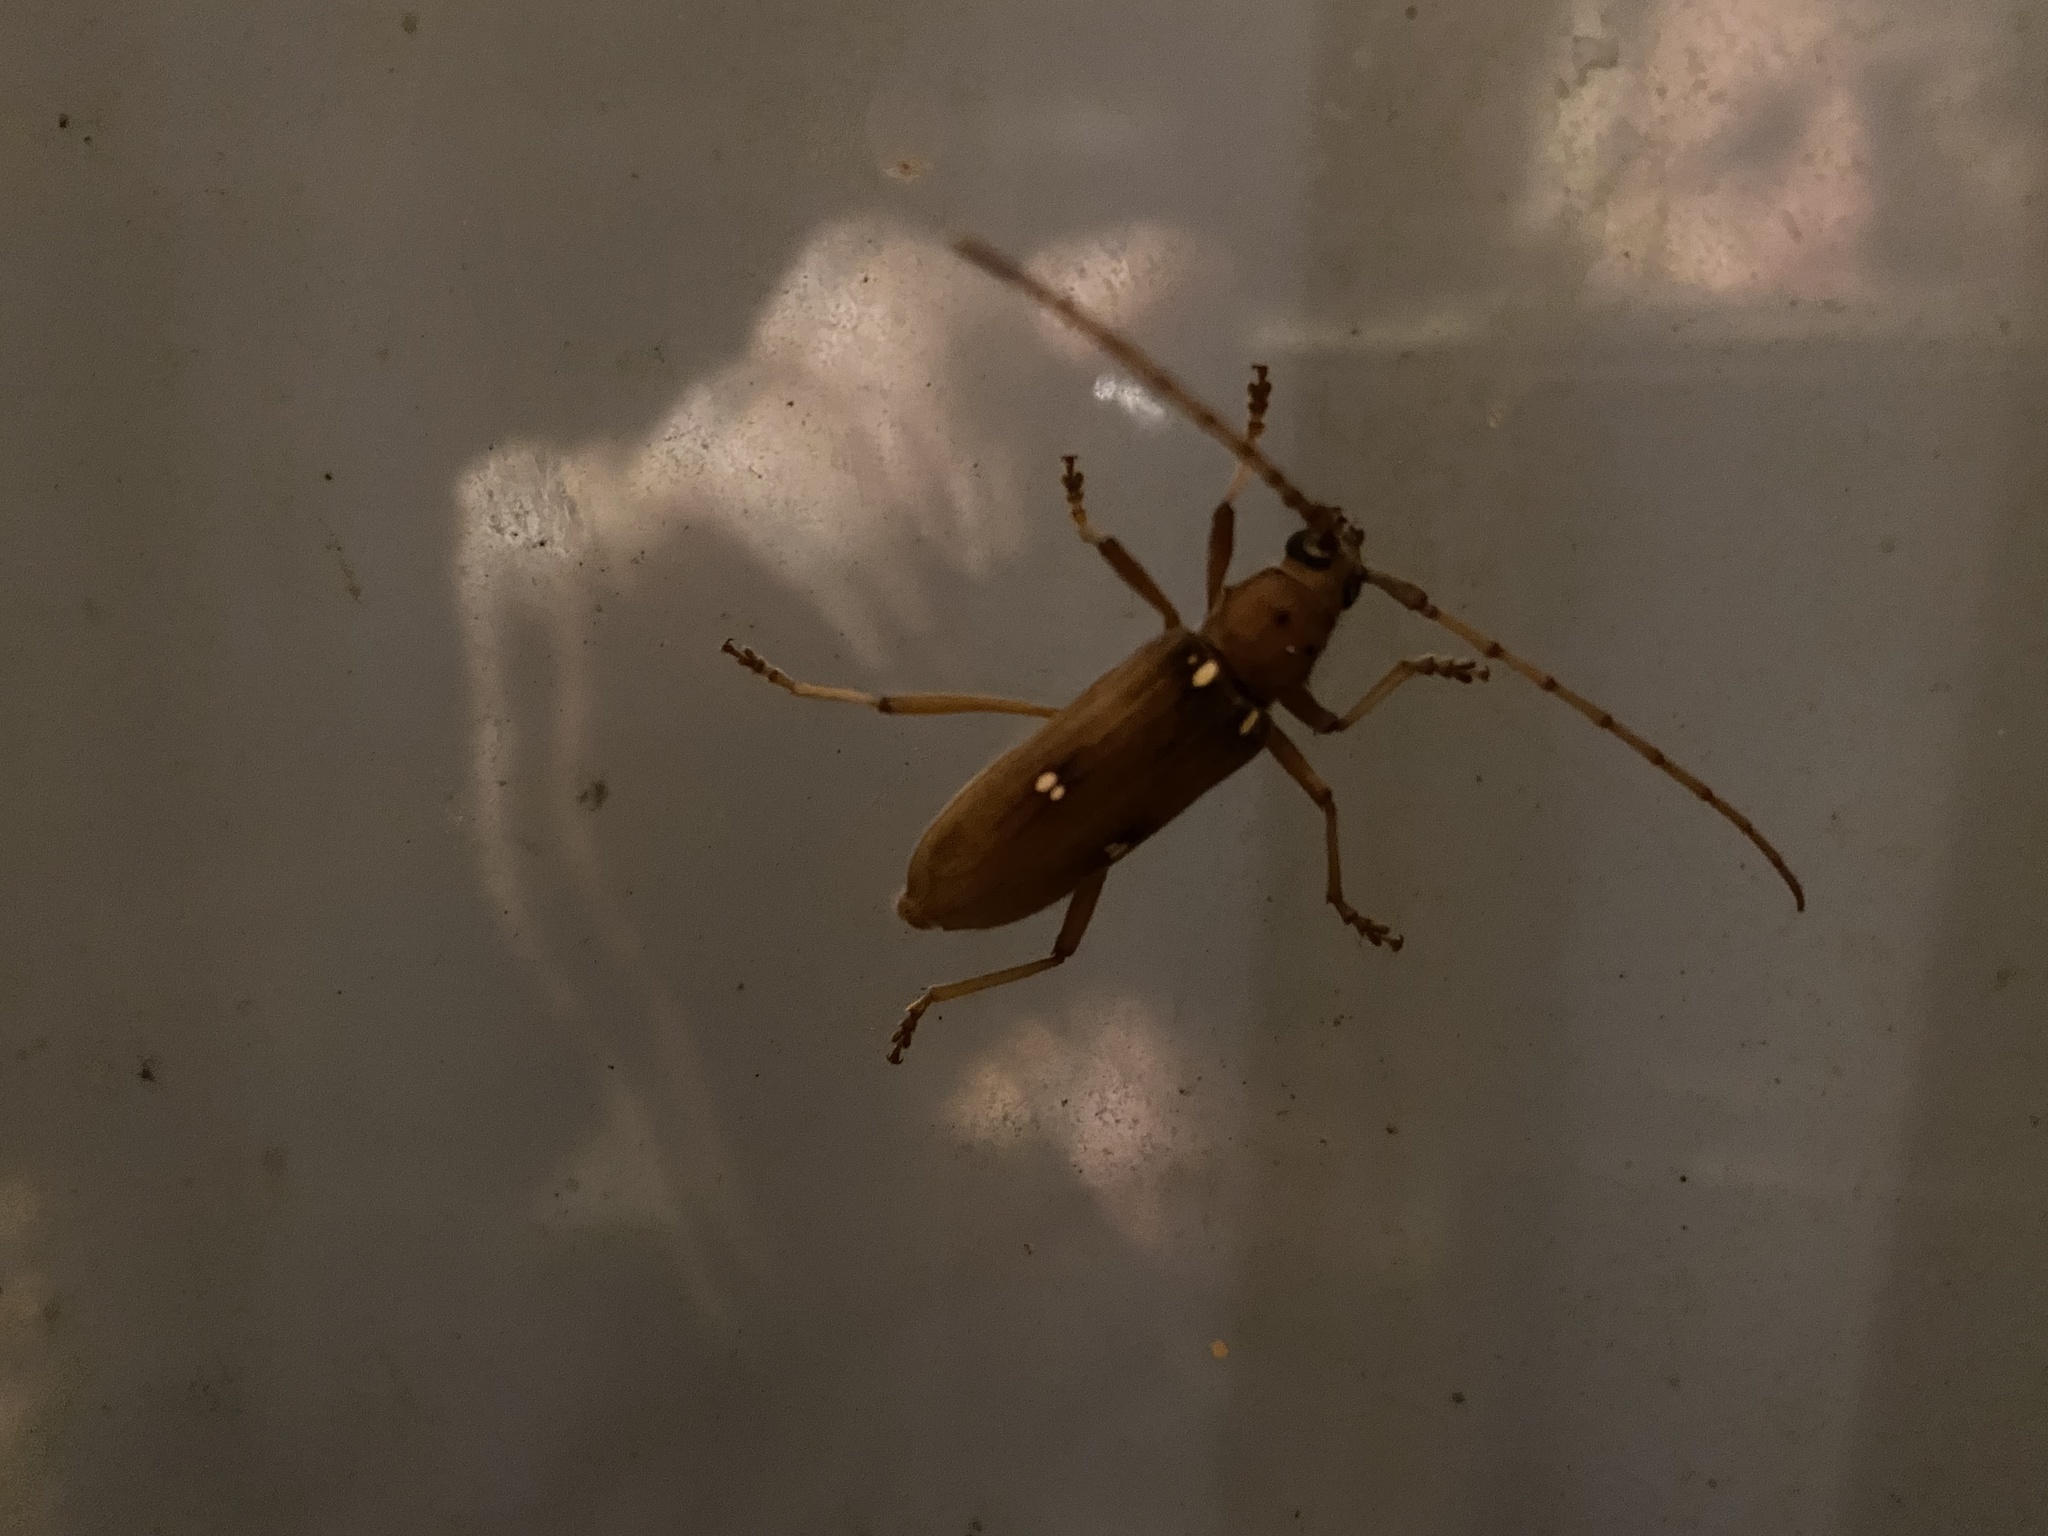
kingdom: Animalia
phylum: Arthropoda
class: Insecta
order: Coleoptera
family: Cerambycidae
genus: Eburia
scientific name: Eburia haldemani
